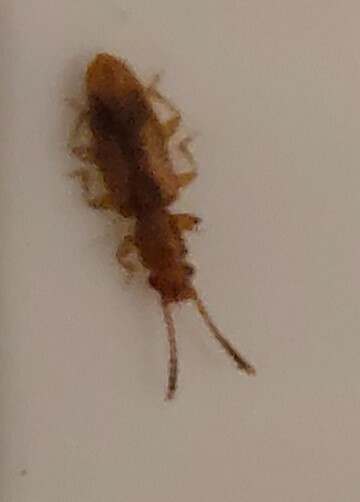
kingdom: Animalia
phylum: Arthropoda
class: Insecta
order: Coleoptera
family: Silvanidae
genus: Cryptamorpha
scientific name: Cryptamorpha desjardinsi
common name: Cryptamorpha
